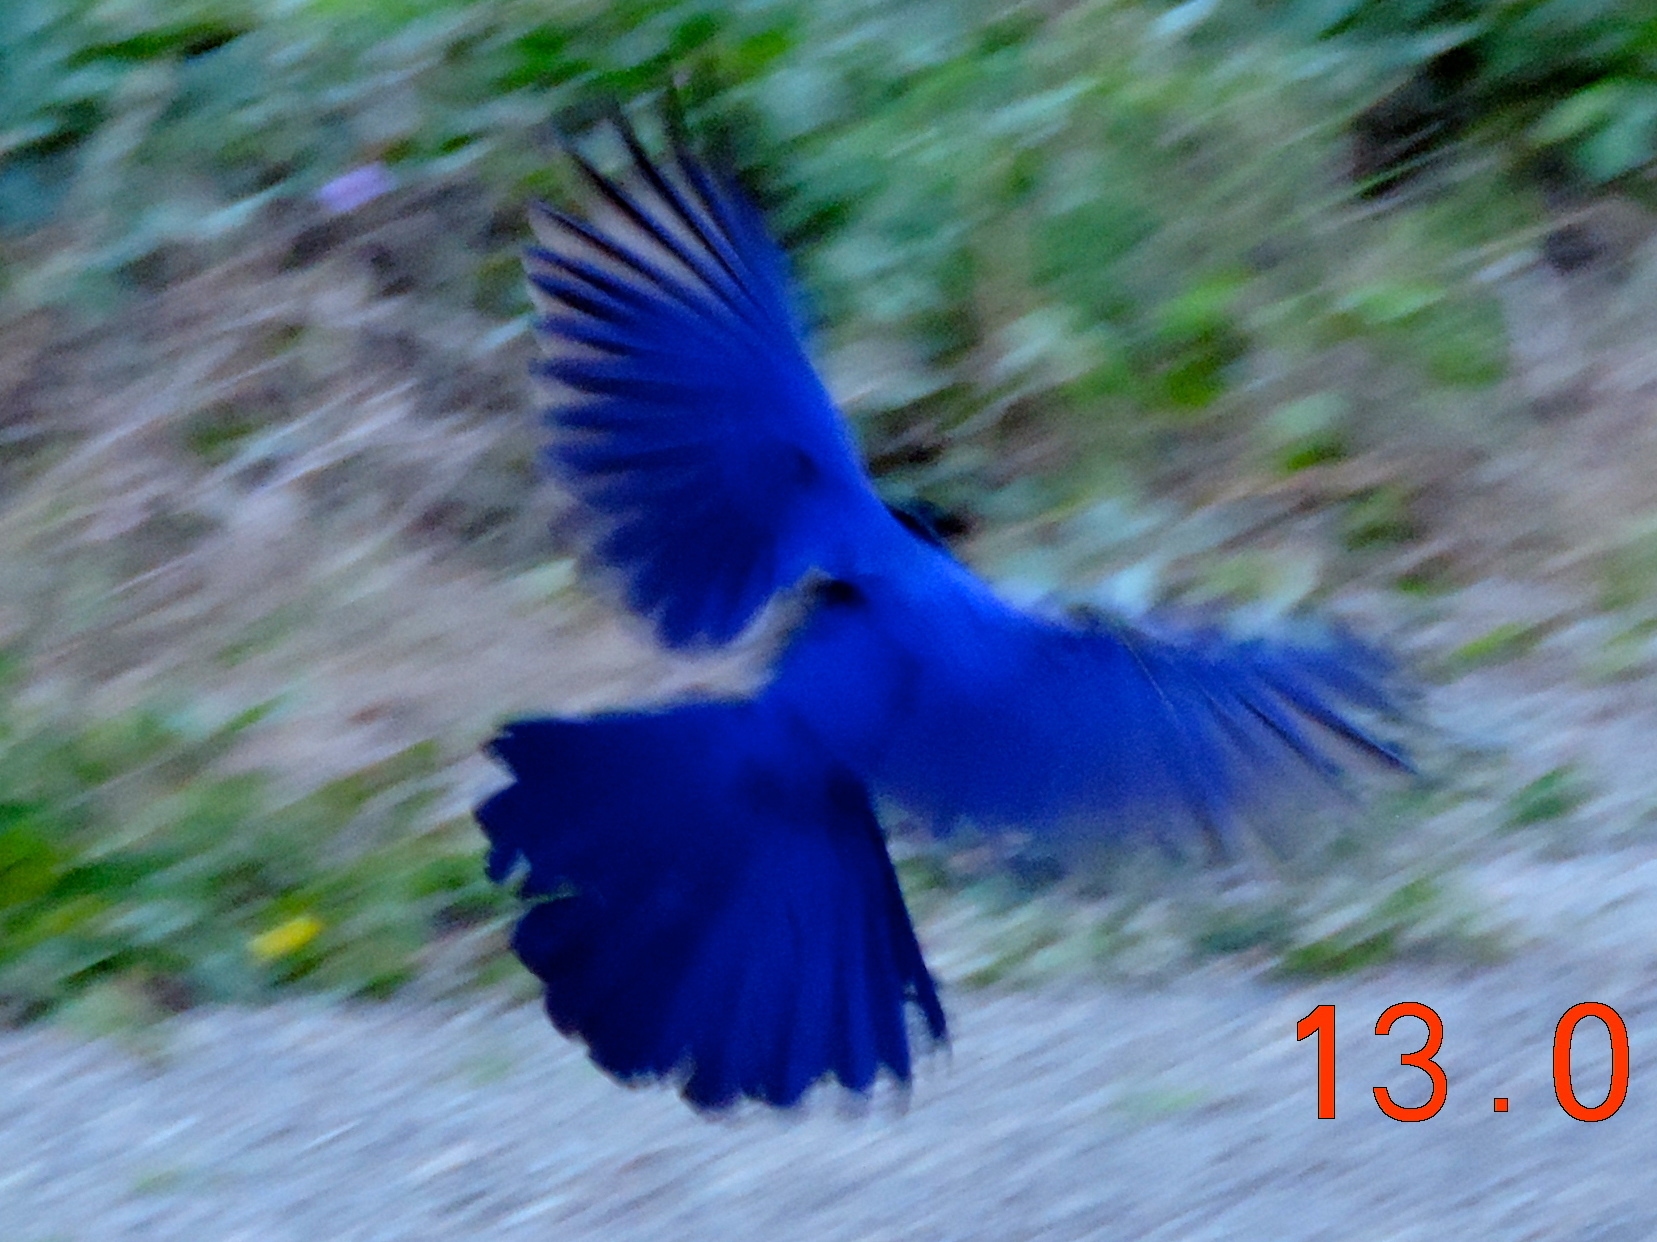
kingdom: Animalia
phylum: Chordata
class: Aves
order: Passeriformes
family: Corvidae
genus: Cyanocorax
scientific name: Cyanocorax beecheii
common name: Purplish-backed jay
